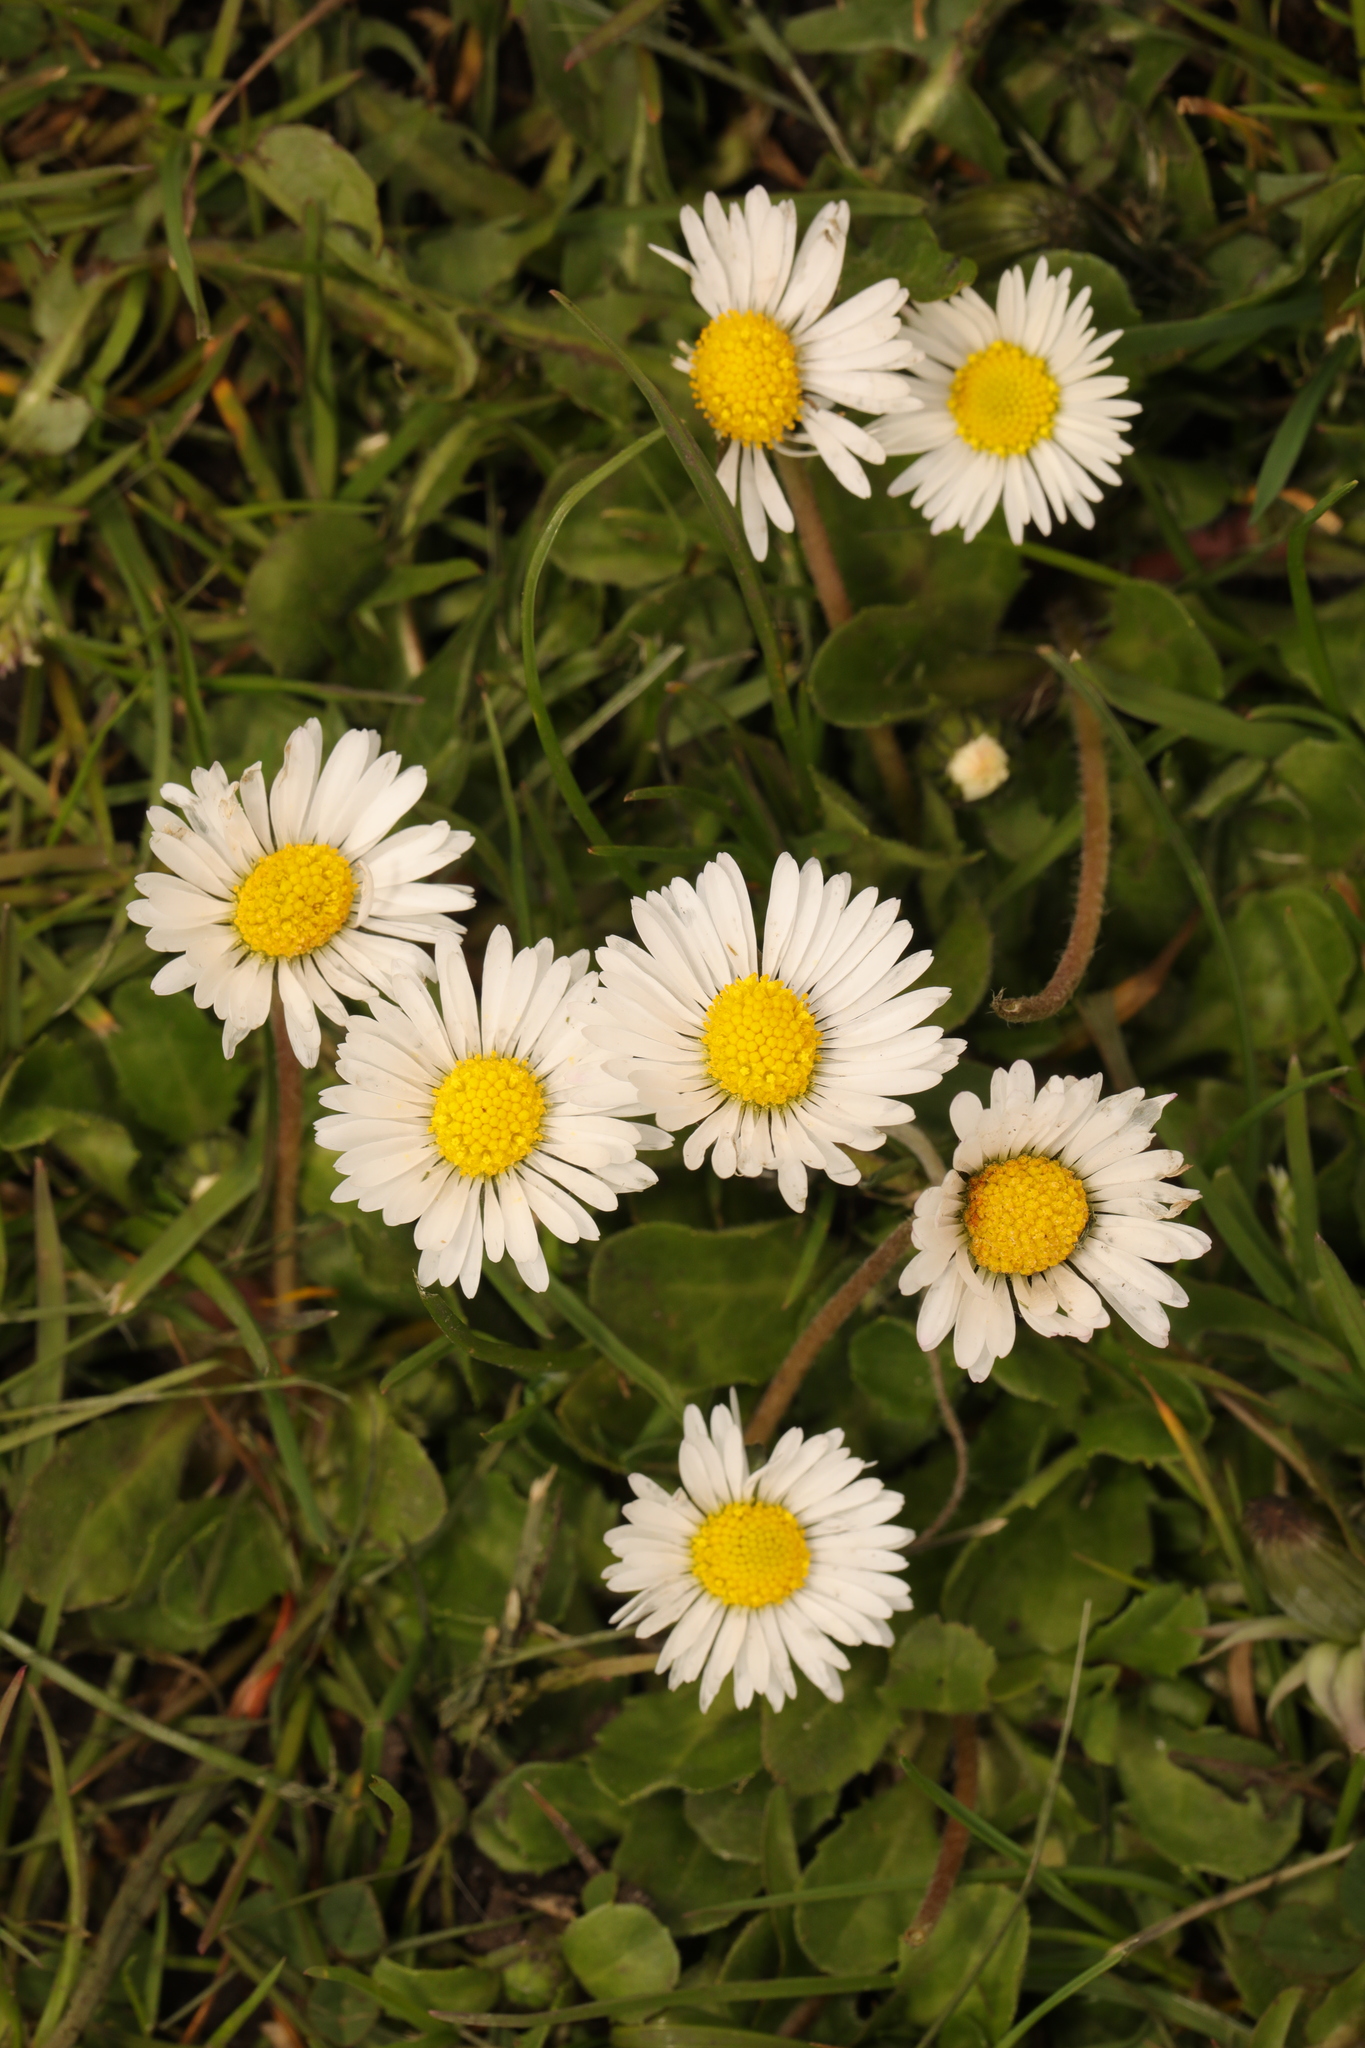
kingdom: Plantae
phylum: Tracheophyta
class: Magnoliopsida
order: Asterales
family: Asteraceae
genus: Bellis
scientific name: Bellis perennis
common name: Lawndaisy
